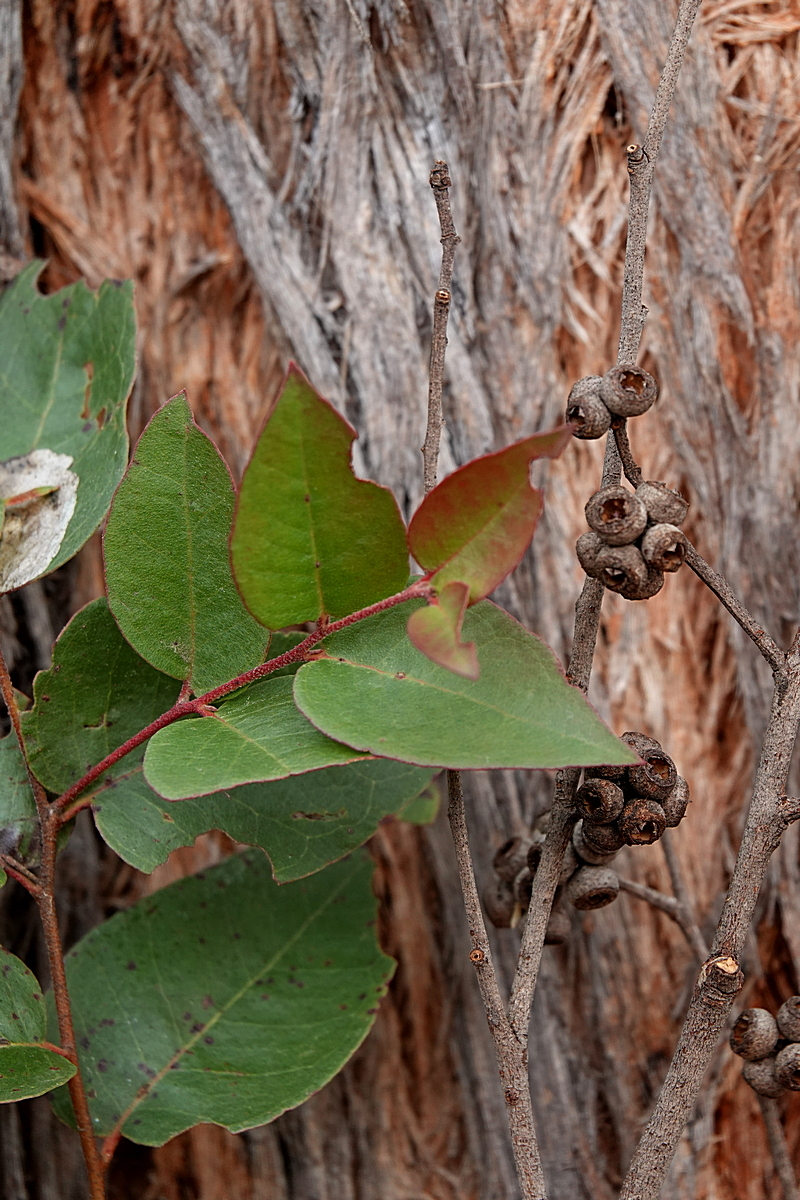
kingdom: Plantae
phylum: Tracheophyta
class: Magnoliopsida
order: Myrtales
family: Myrtaceae
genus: Eucalyptus
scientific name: Eucalyptus globoidea
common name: White-stringybark
